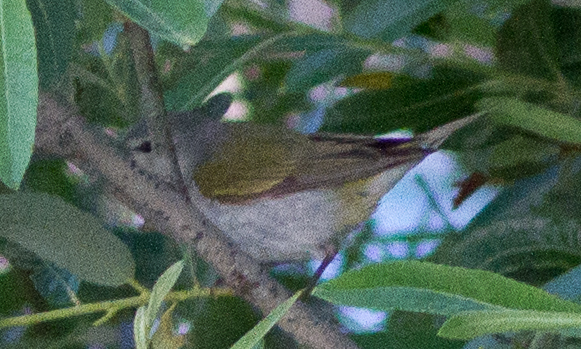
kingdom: Animalia
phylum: Chordata
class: Aves
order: Passeriformes
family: Parulidae
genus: Leiothlypis
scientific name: Leiothlypis peregrina
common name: Tennessee warbler
